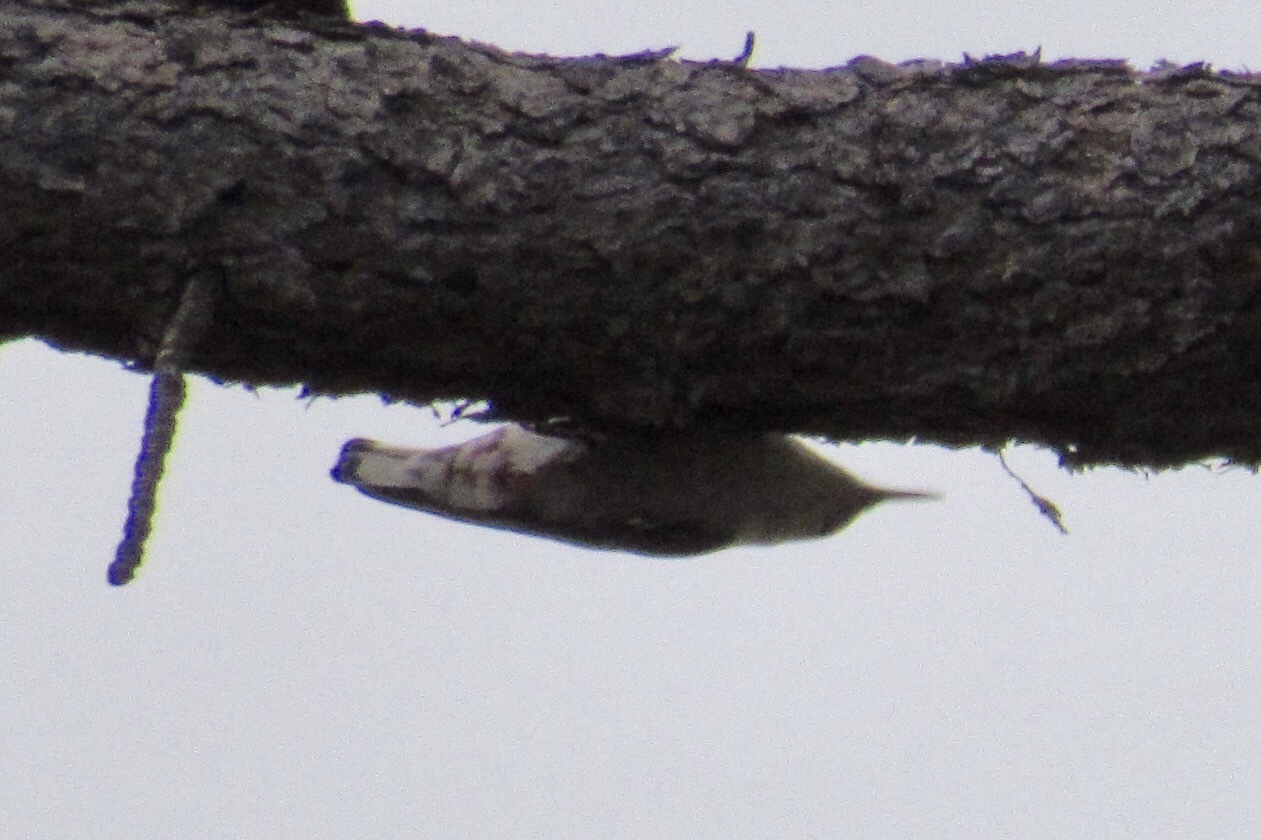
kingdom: Animalia
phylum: Chordata
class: Aves
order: Passeriformes
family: Sittidae
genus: Sitta
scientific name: Sitta carolinensis
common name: White-breasted nuthatch
